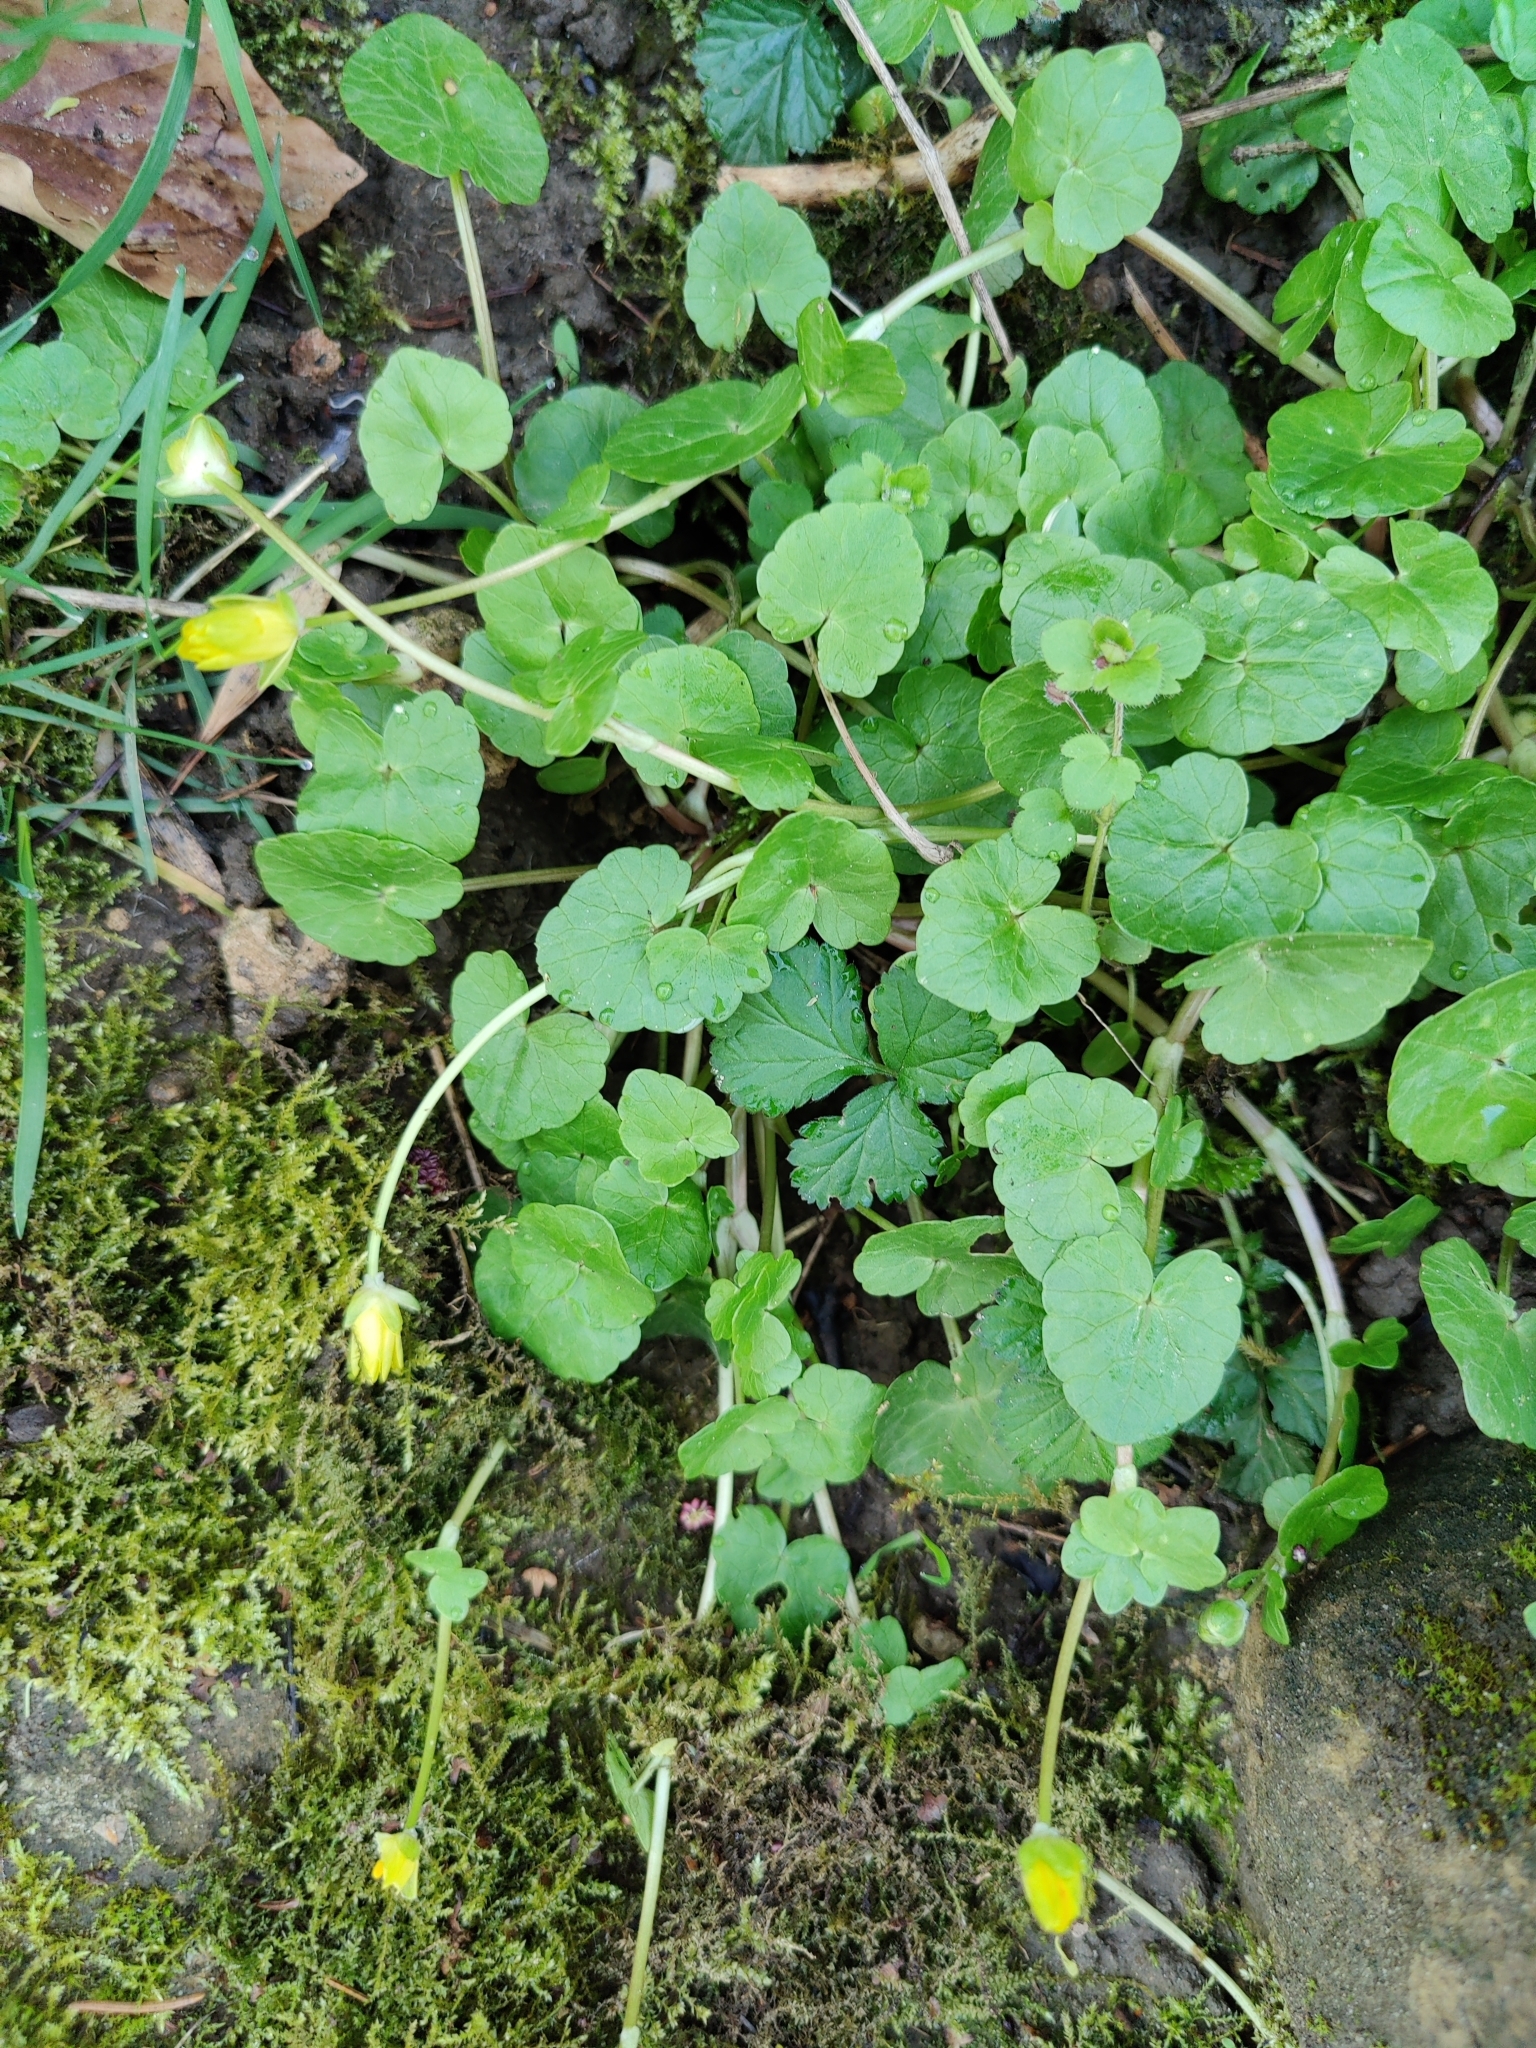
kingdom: Plantae
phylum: Tracheophyta
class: Magnoliopsida
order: Ranunculales
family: Ranunculaceae
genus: Ficaria
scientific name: Ficaria verna
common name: Lesser celandine
